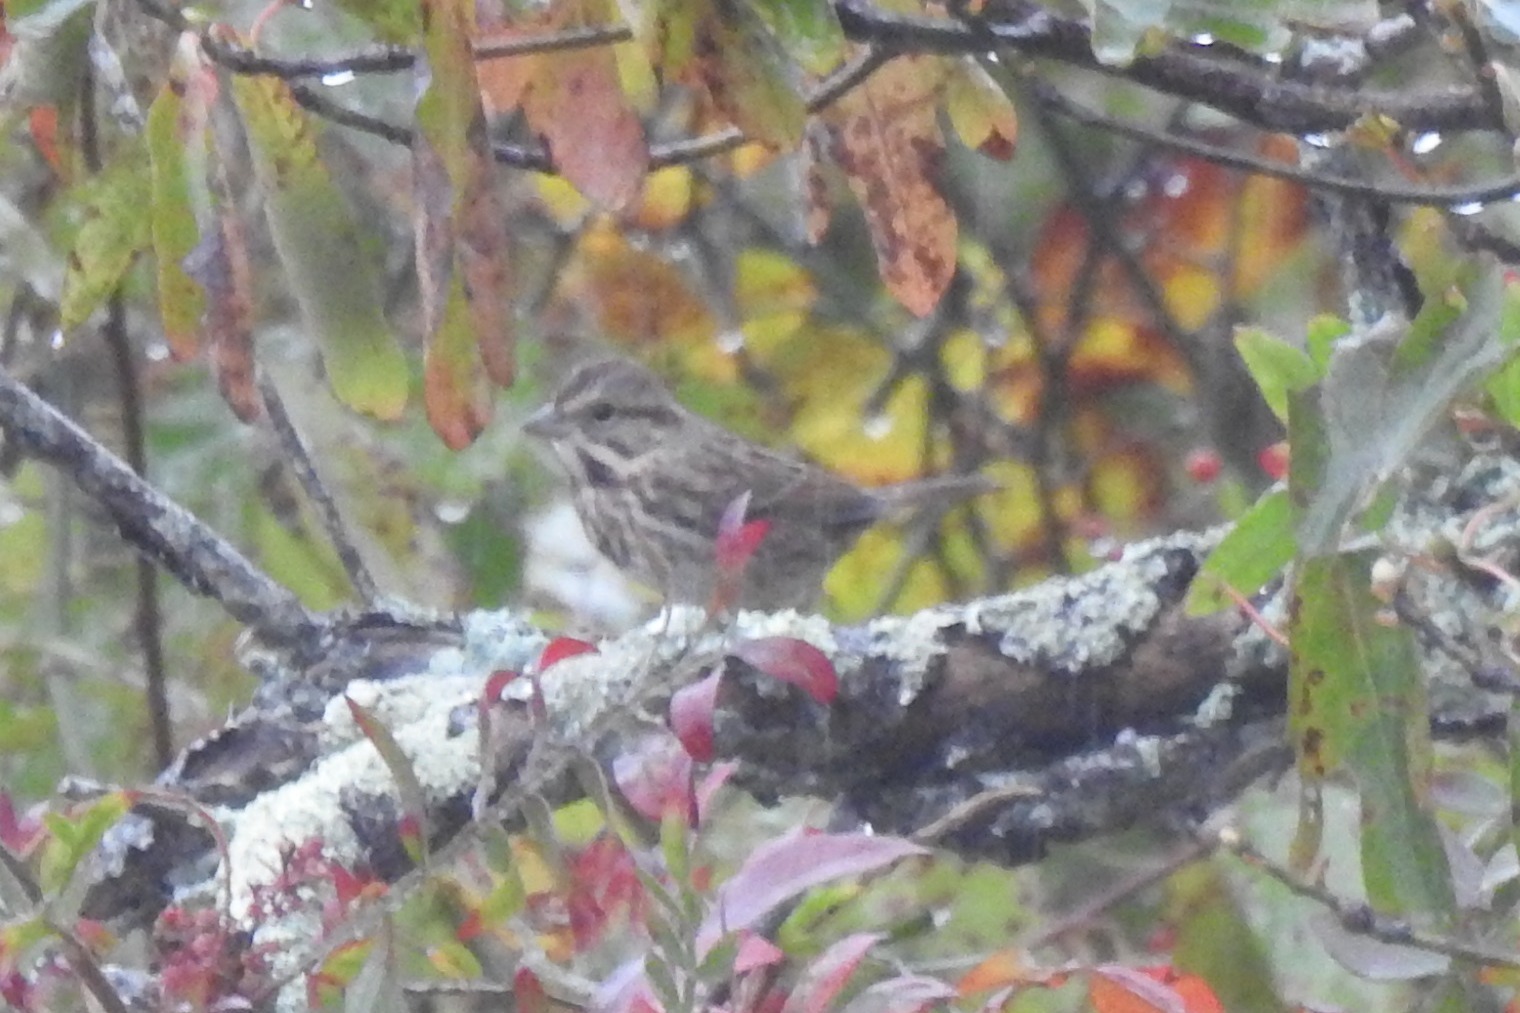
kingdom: Animalia
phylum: Chordata
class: Aves
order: Passeriformes
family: Passerellidae
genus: Melospiza
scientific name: Melospiza melodia
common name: Song sparrow
